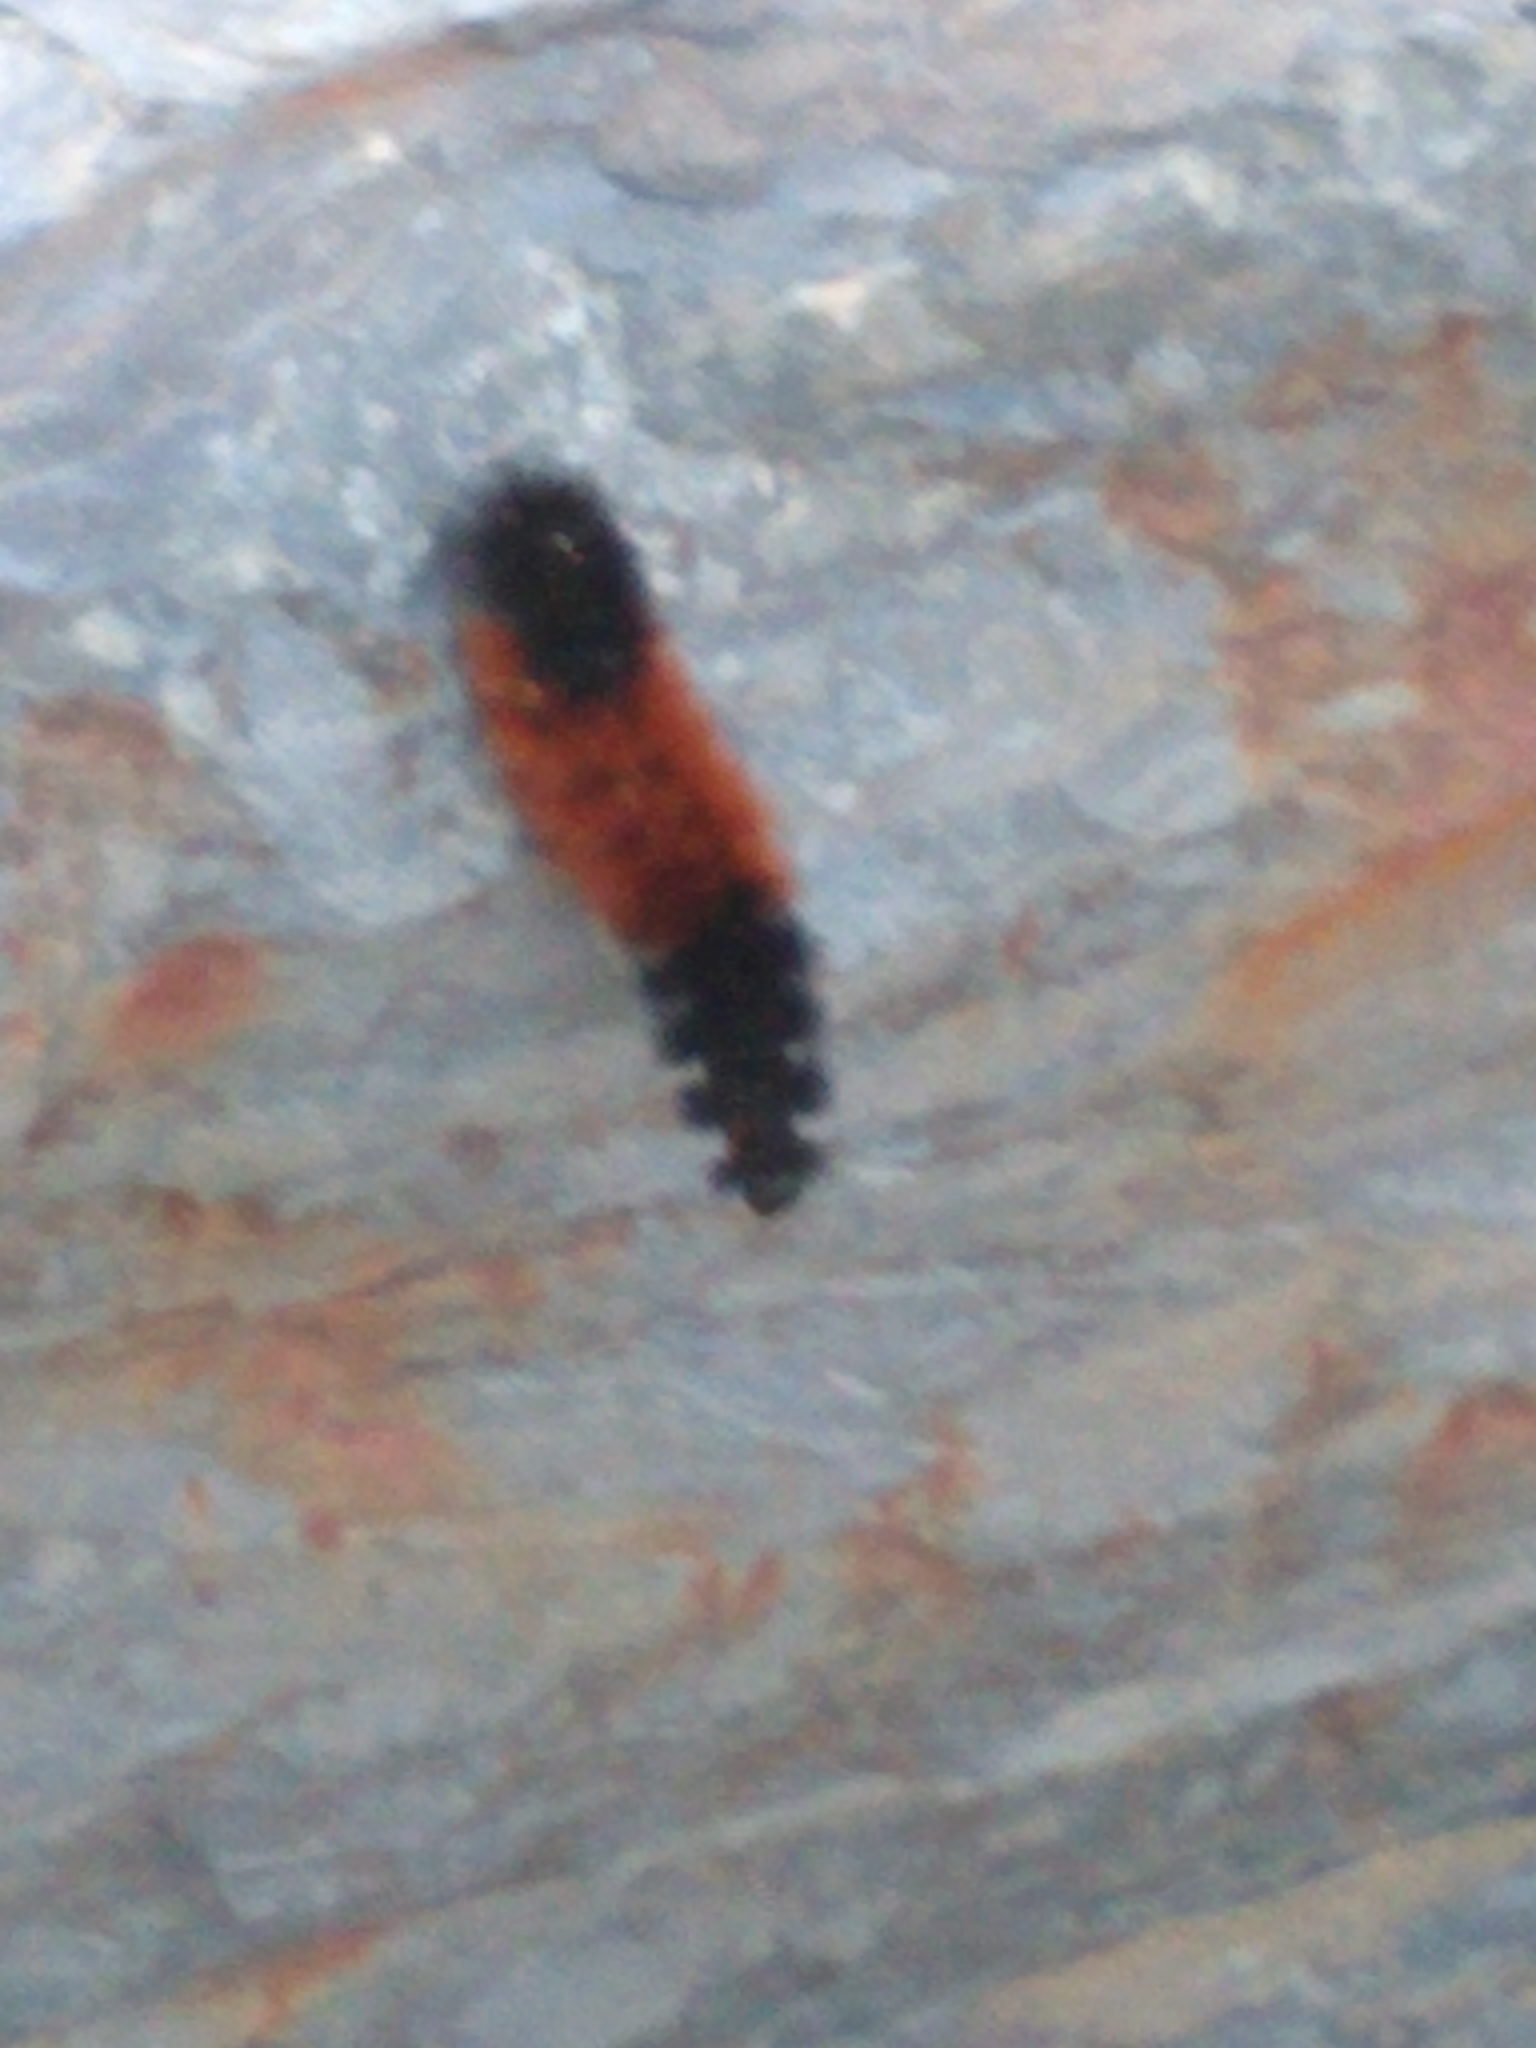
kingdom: Animalia
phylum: Arthropoda
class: Insecta
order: Lepidoptera
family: Erebidae
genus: Pyrrharctia
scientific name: Pyrrharctia isabella
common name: Isabella tiger moth
